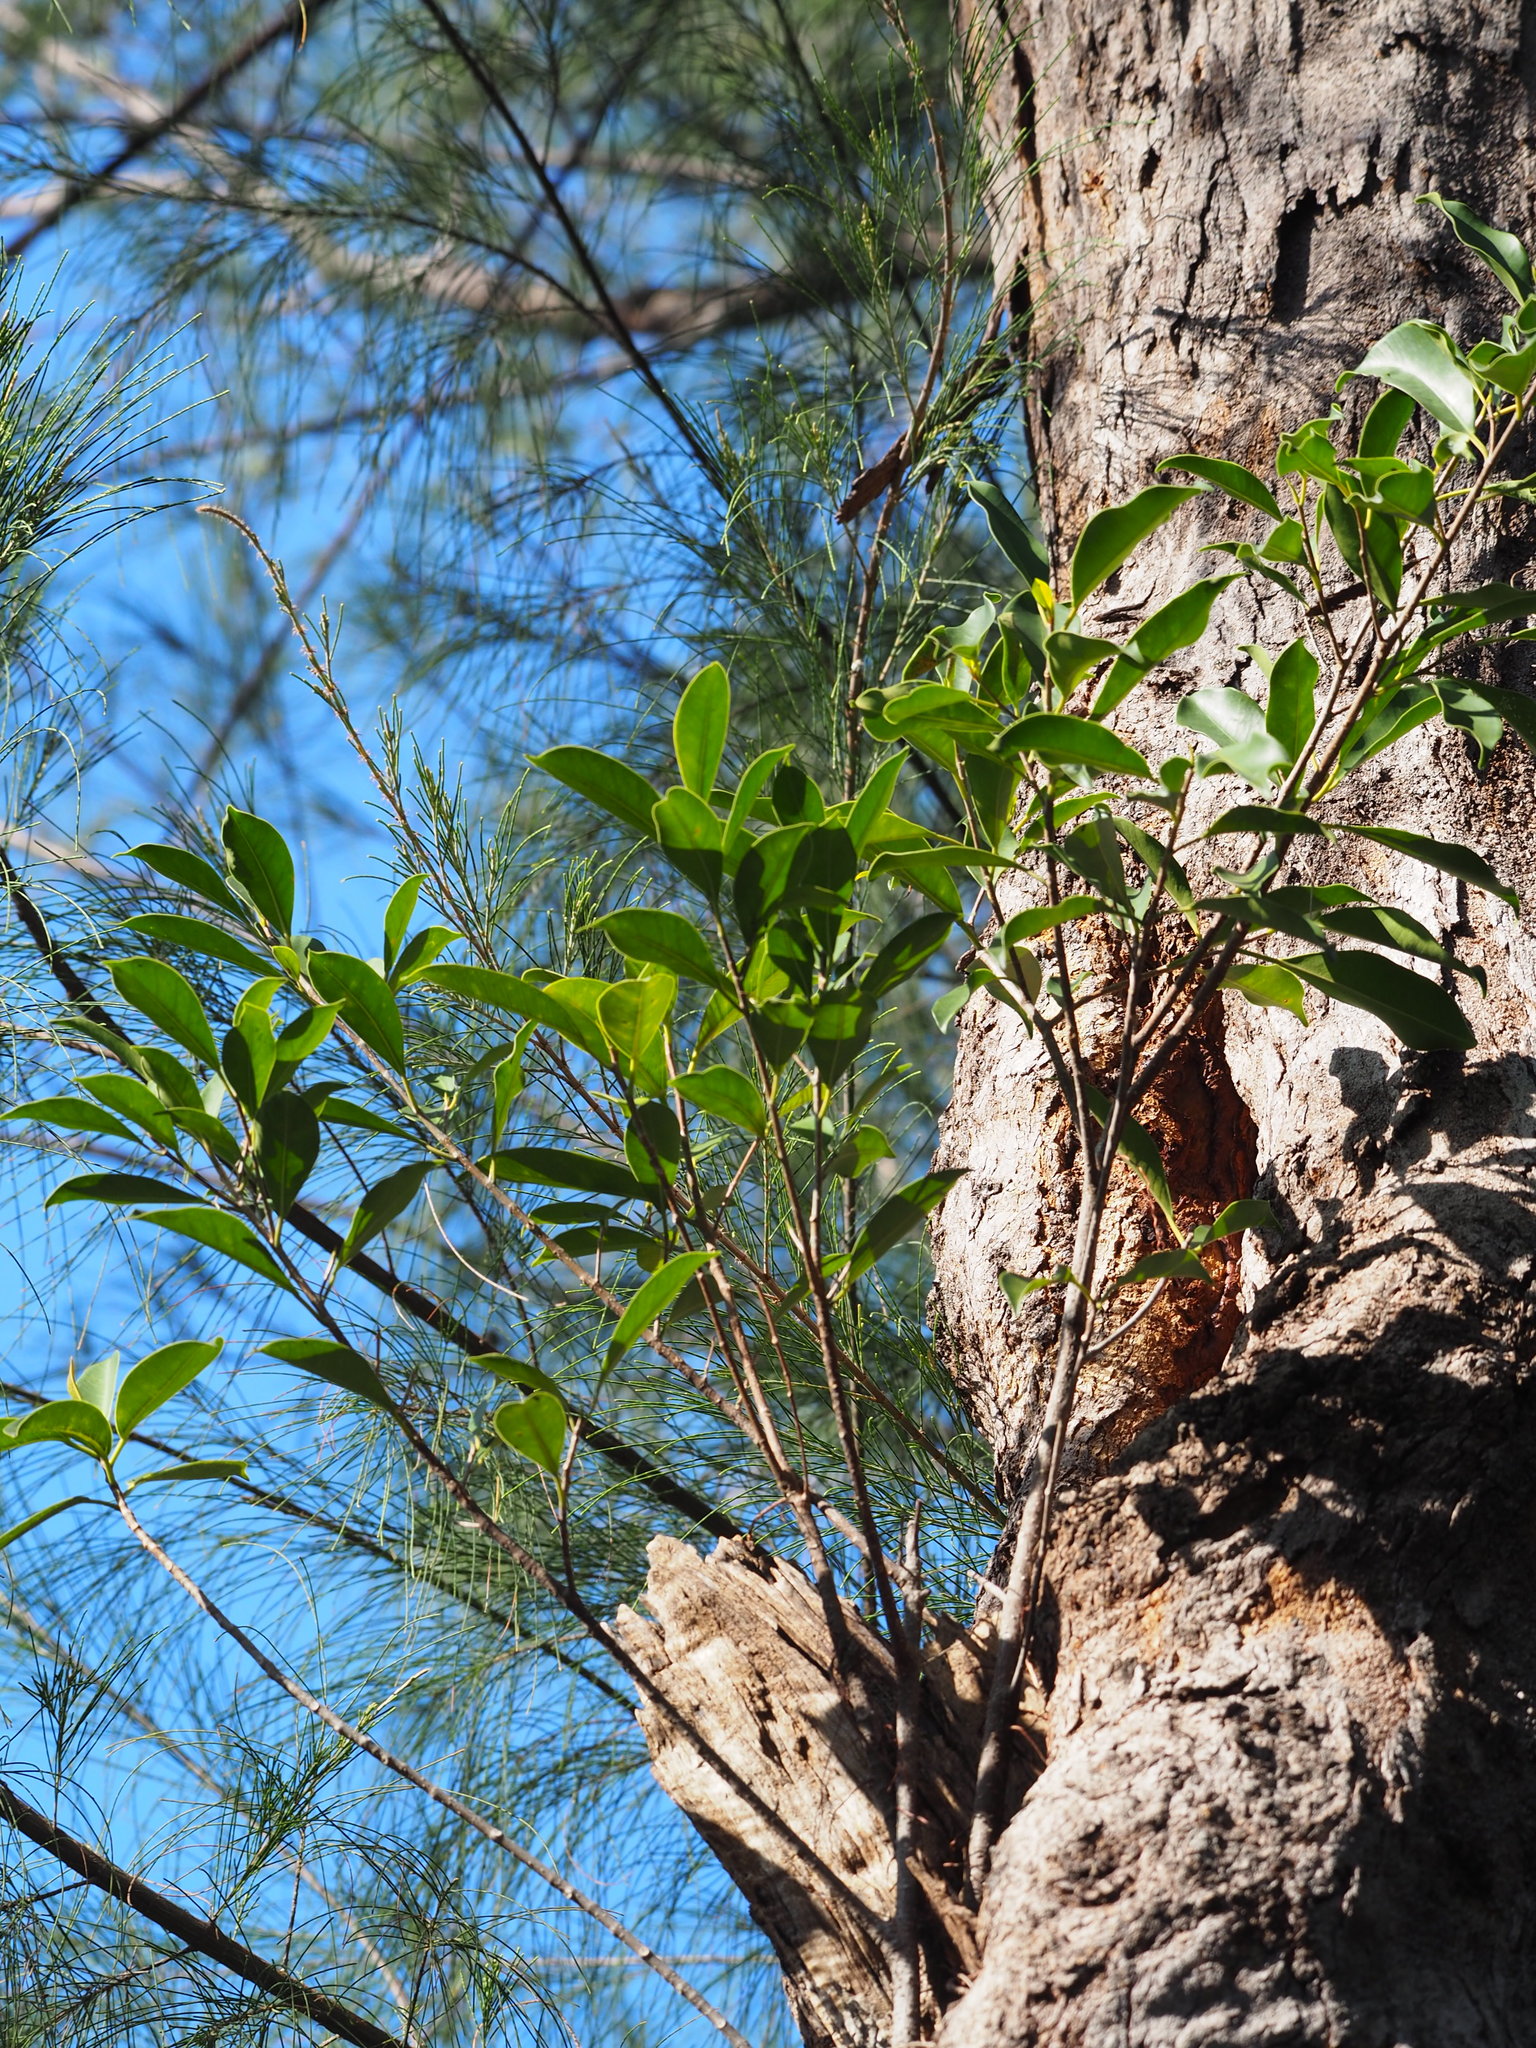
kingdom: Plantae
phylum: Tracheophyta
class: Magnoliopsida
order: Rosales
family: Moraceae
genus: Ficus
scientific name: Ficus microcarpa
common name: Chinese banyan
